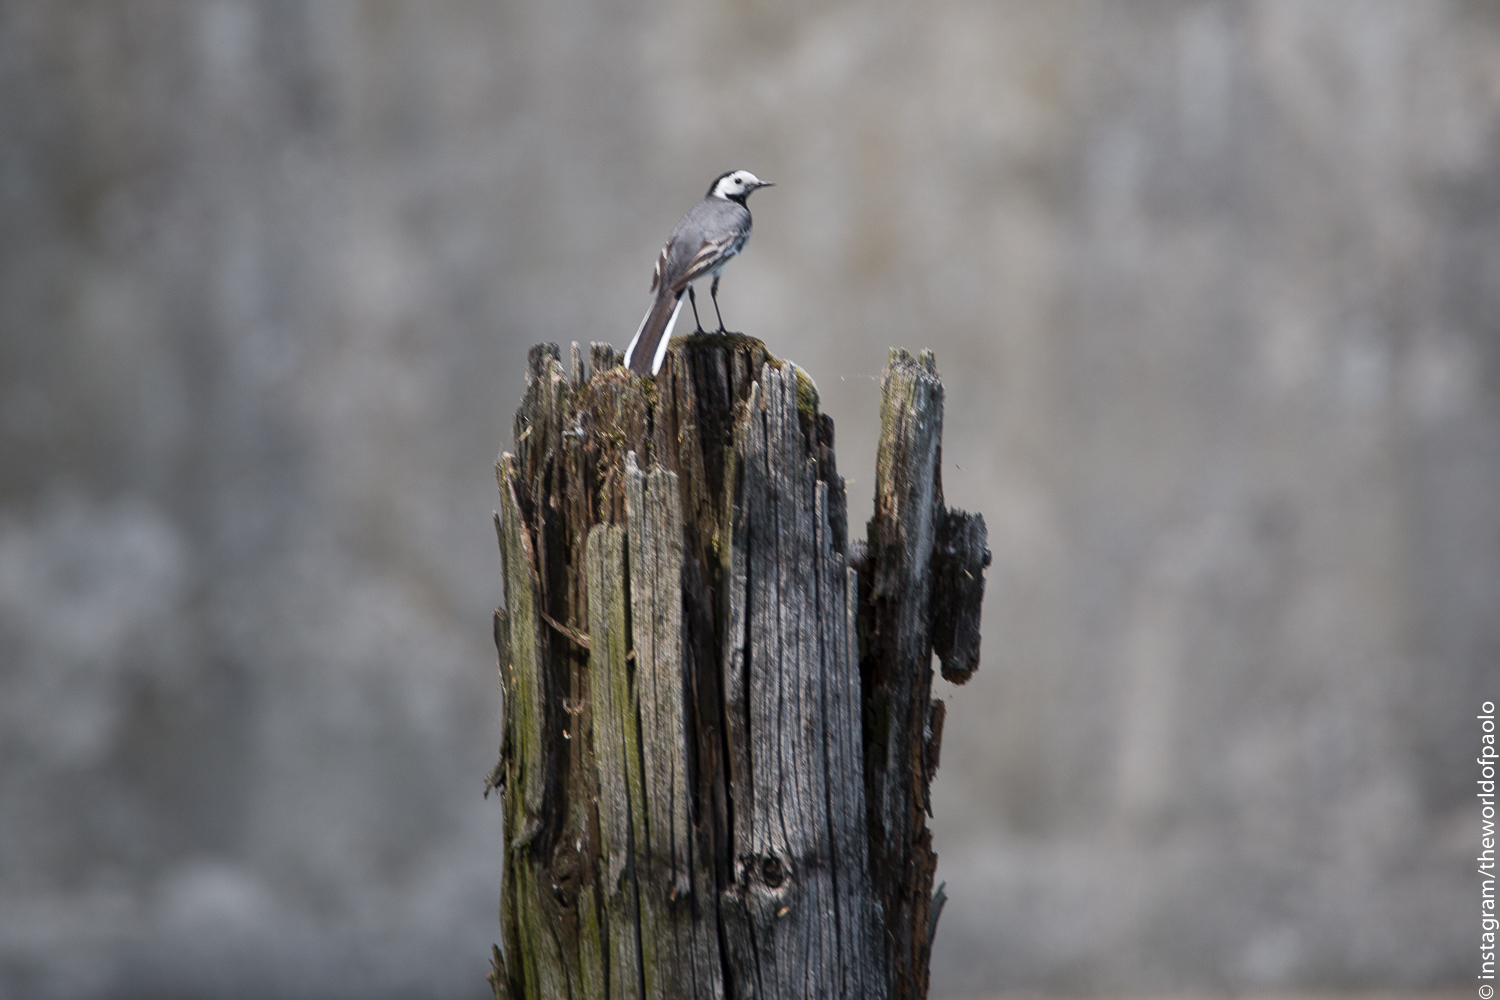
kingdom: Animalia
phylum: Chordata
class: Aves
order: Passeriformes
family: Motacillidae
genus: Motacilla
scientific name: Motacilla alba
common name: White wagtail
